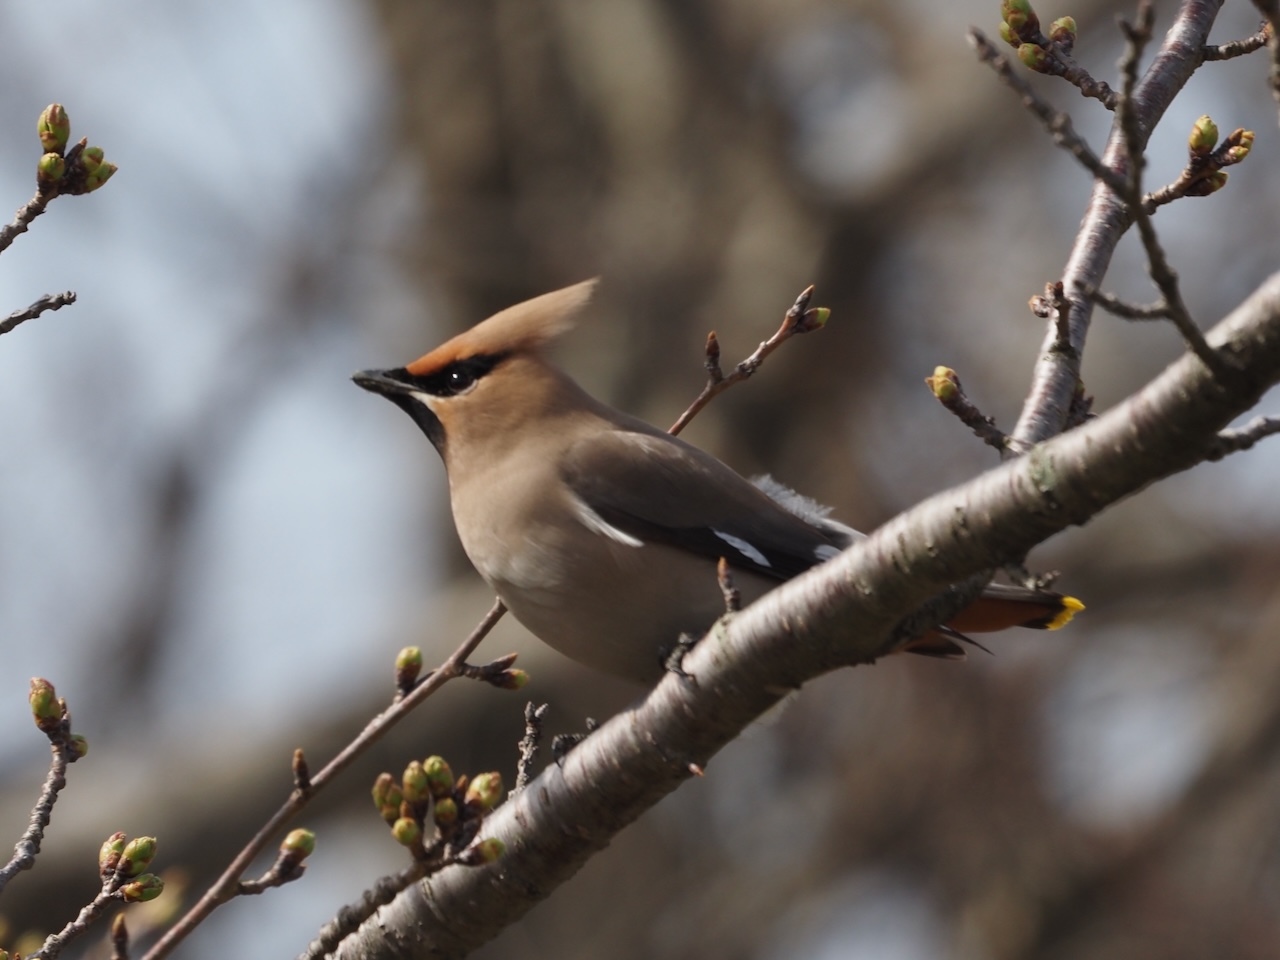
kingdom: Animalia
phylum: Chordata
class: Aves
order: Passeriformes
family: Bombycillidae
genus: Bombycilla
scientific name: Bombycilla garrulus
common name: Bohemian waxwing
